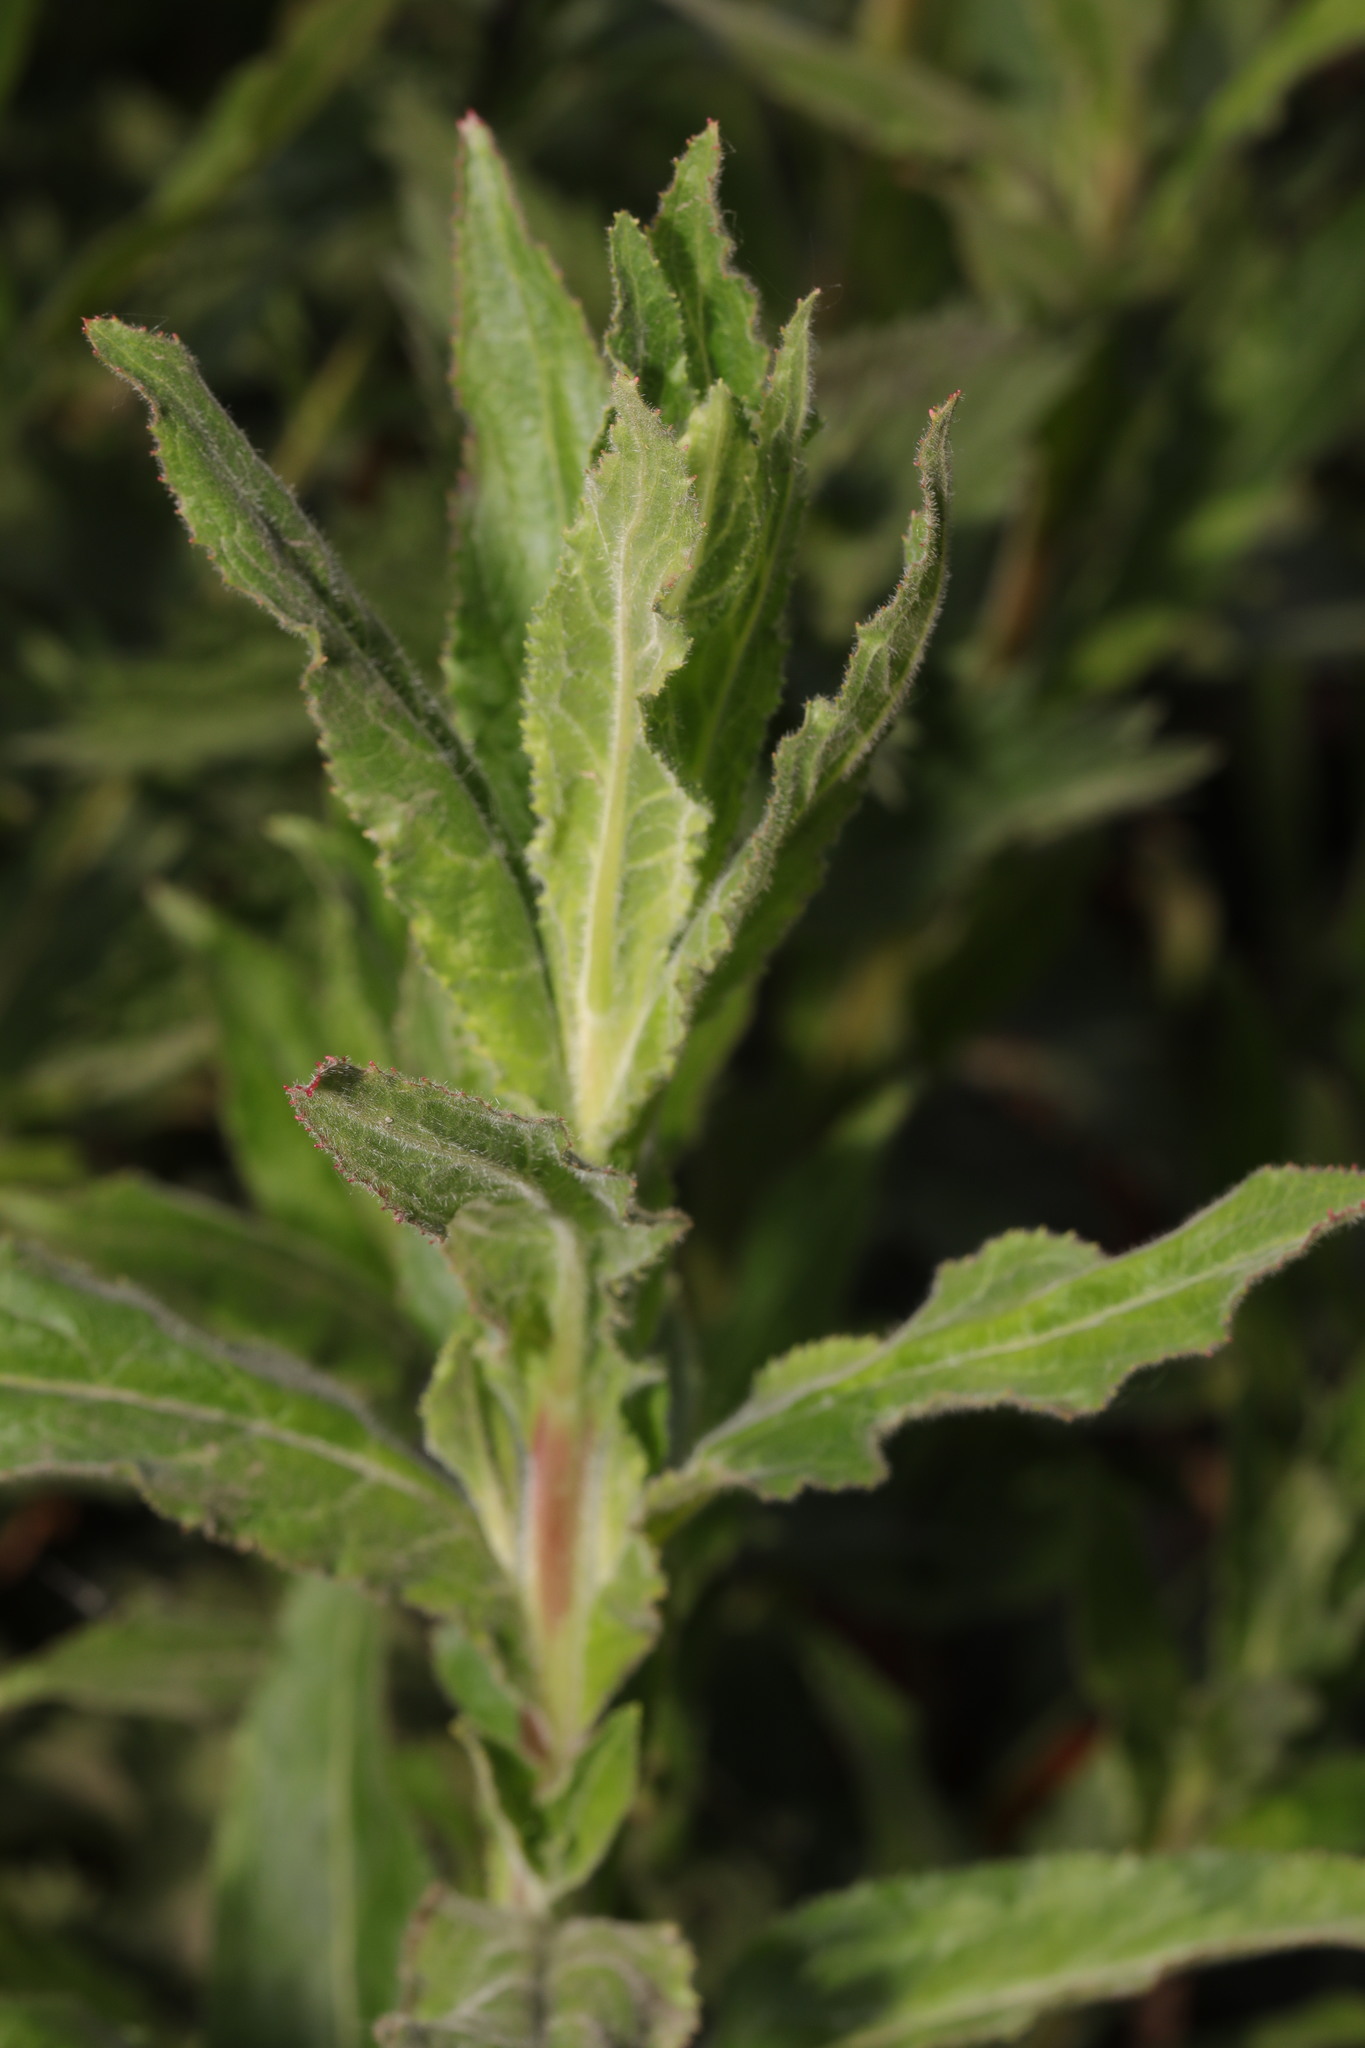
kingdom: Plantae
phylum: Tracheophyta
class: Magnoliopsida
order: Myrtales
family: Onagraceae
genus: Epilobium
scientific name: Epilobium hirsutum
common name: Great willowherb
